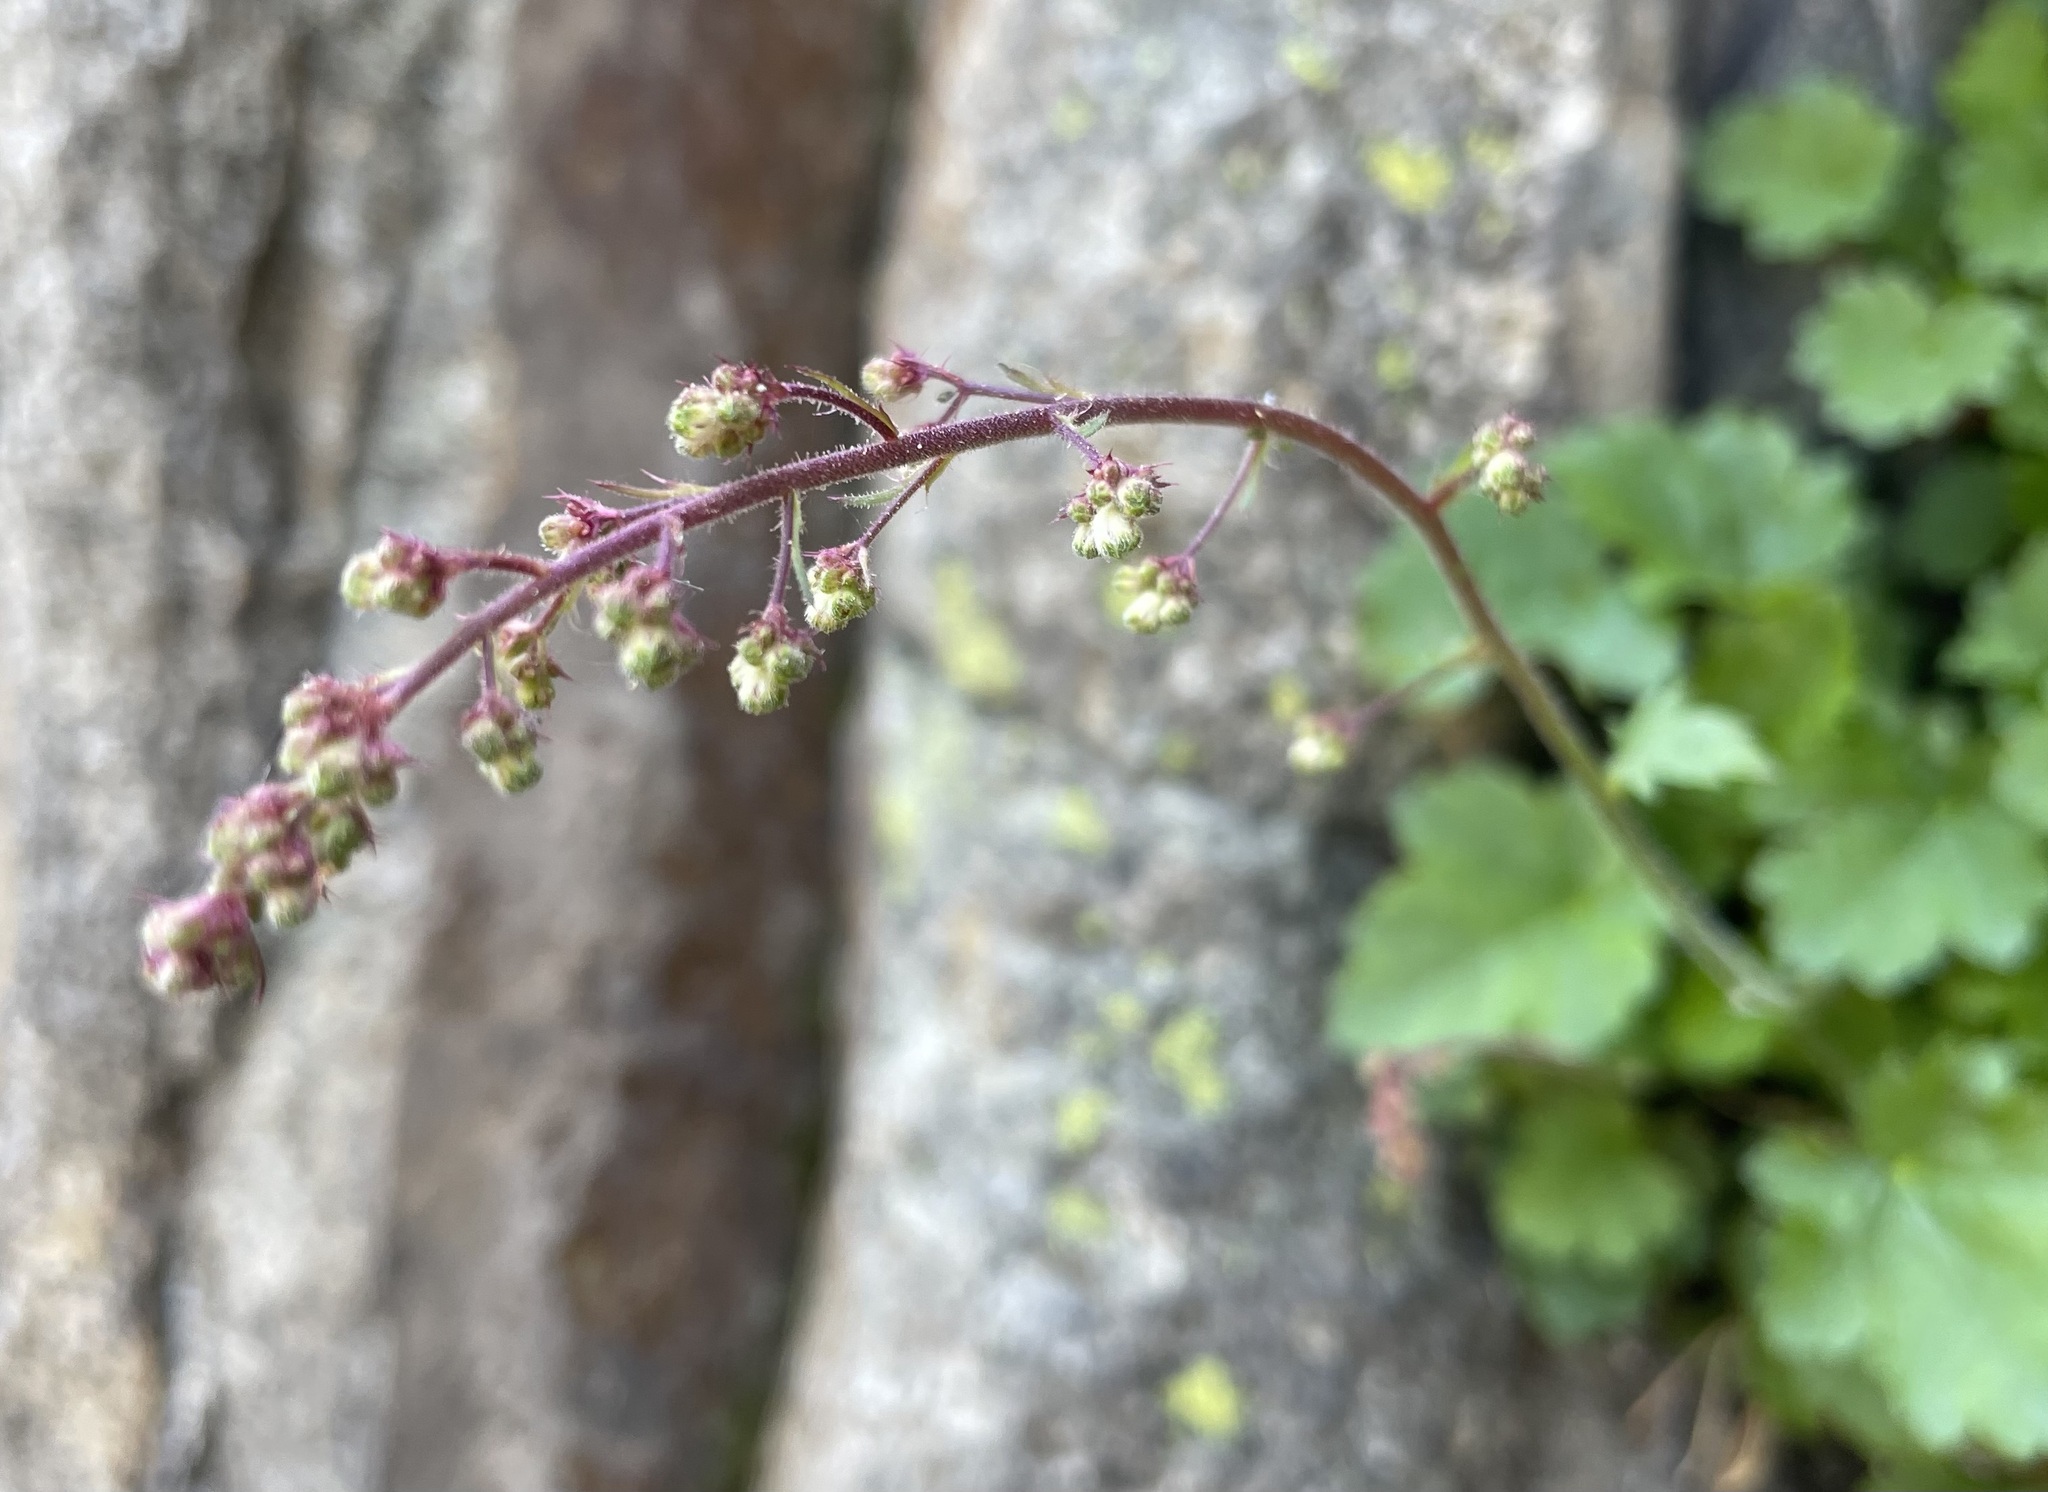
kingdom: Plantae
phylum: Tracheophyta
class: Magnoliopsida
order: Saxifragales
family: Saxifragaceae
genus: Heuchera
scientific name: Heuchera rubescens
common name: Jack-o'the-rocks
